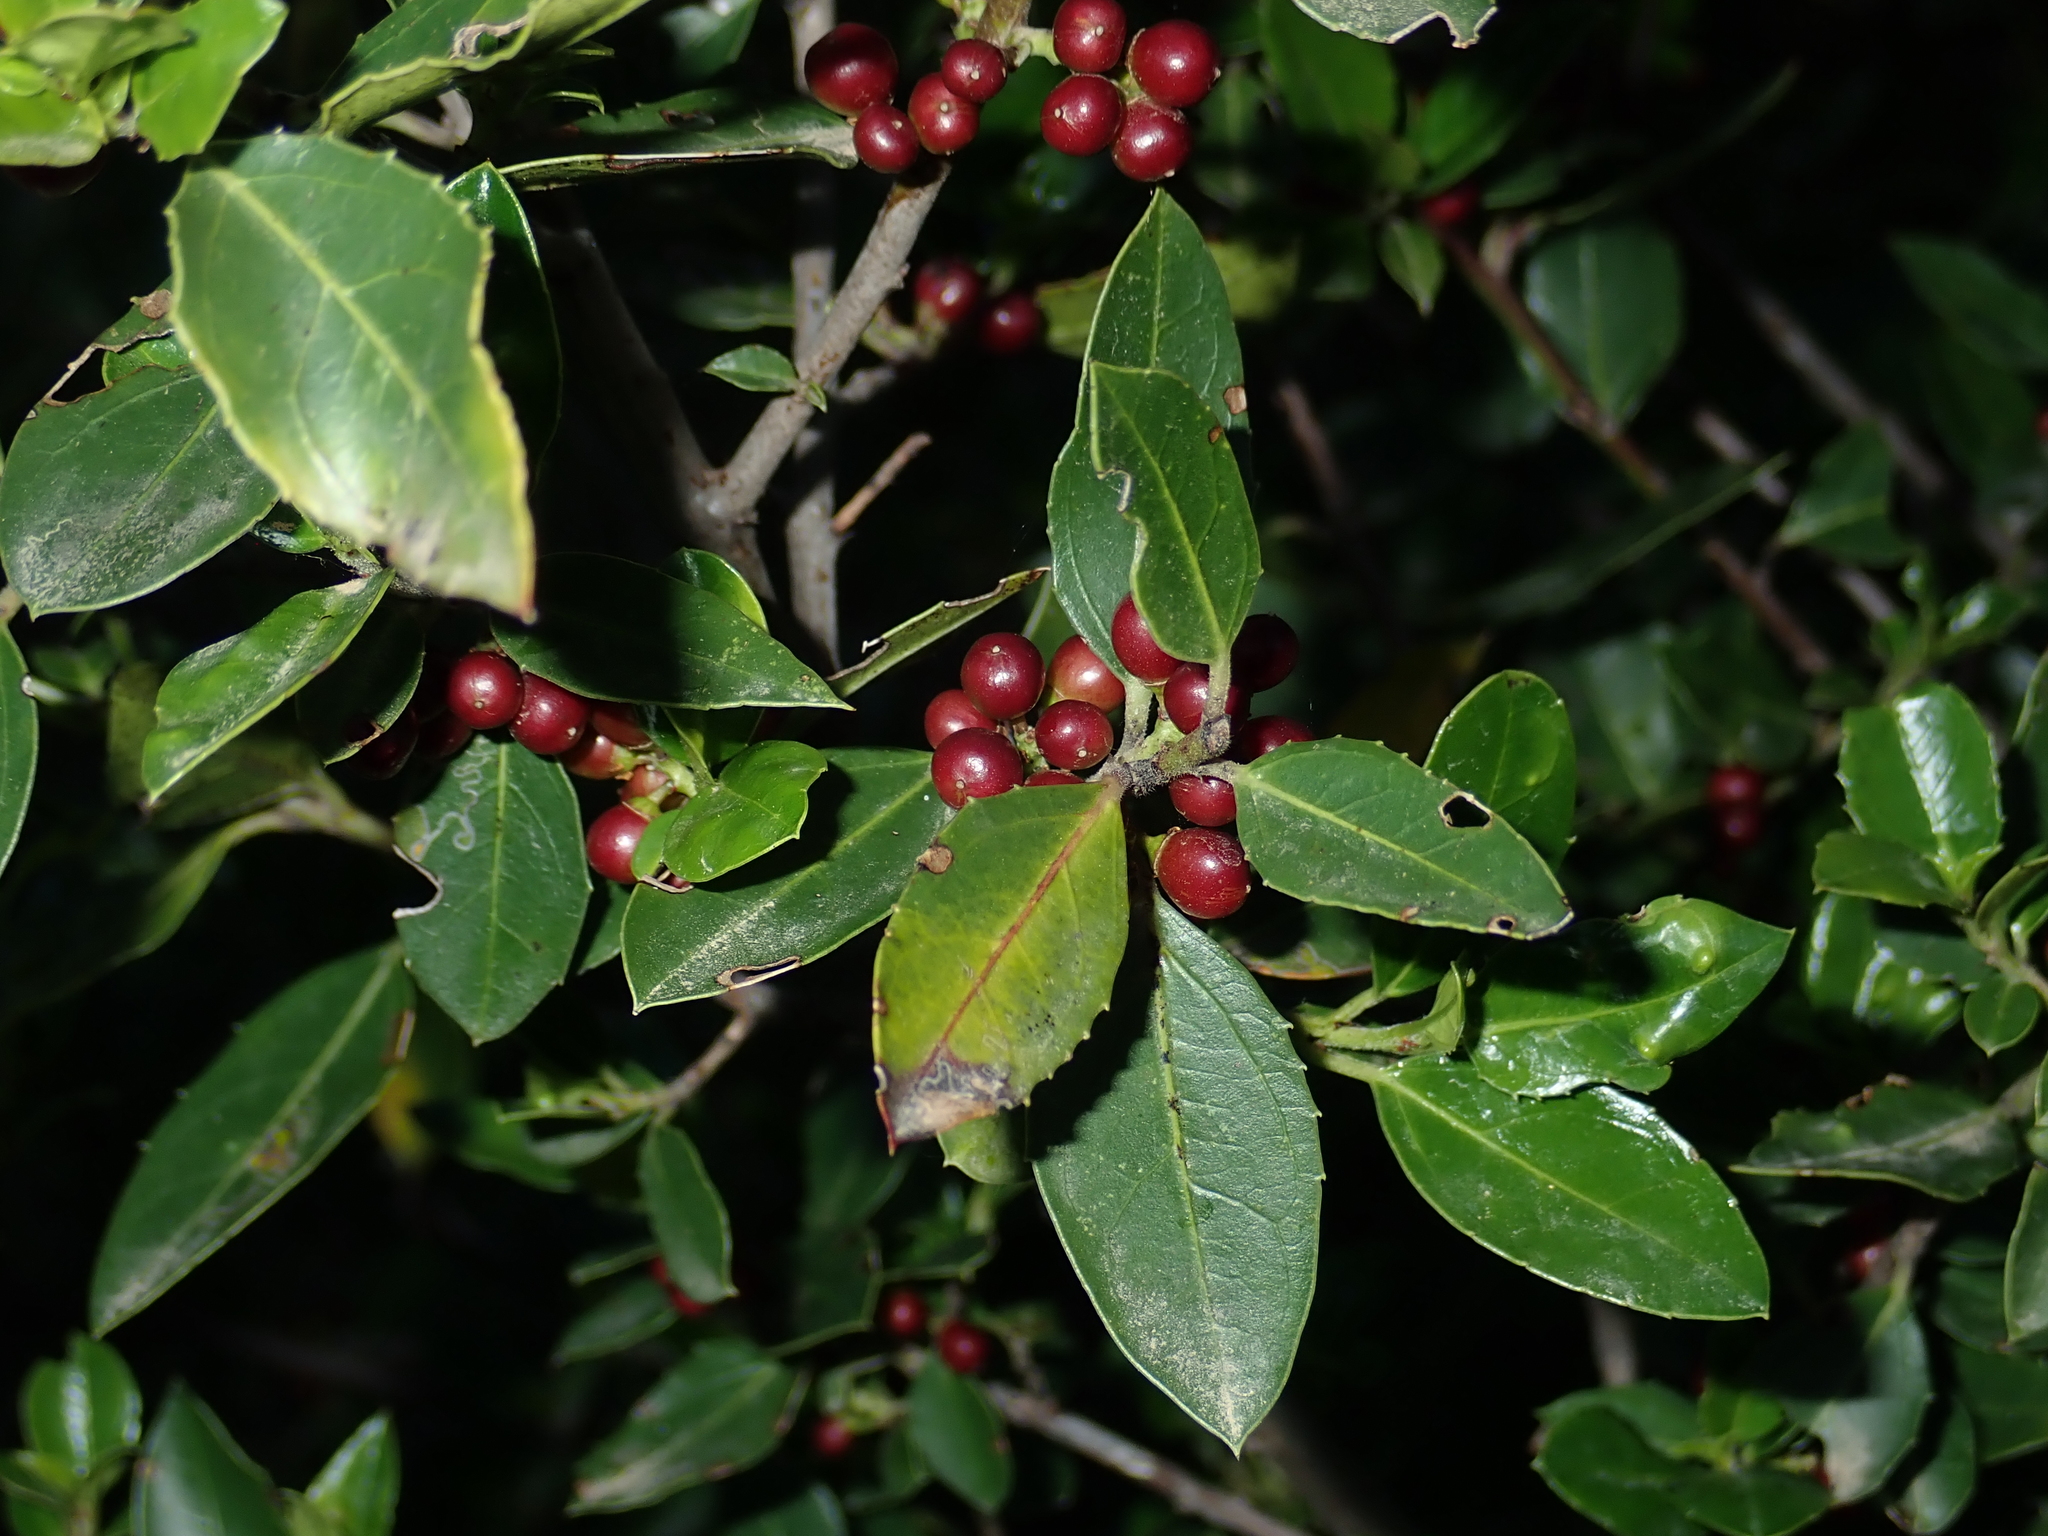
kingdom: Plantae
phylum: Tracheophyta
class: Magnoliopsida
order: Lamiales
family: Oleaceae
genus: Phillyrea
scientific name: Phillyrea latifolia
